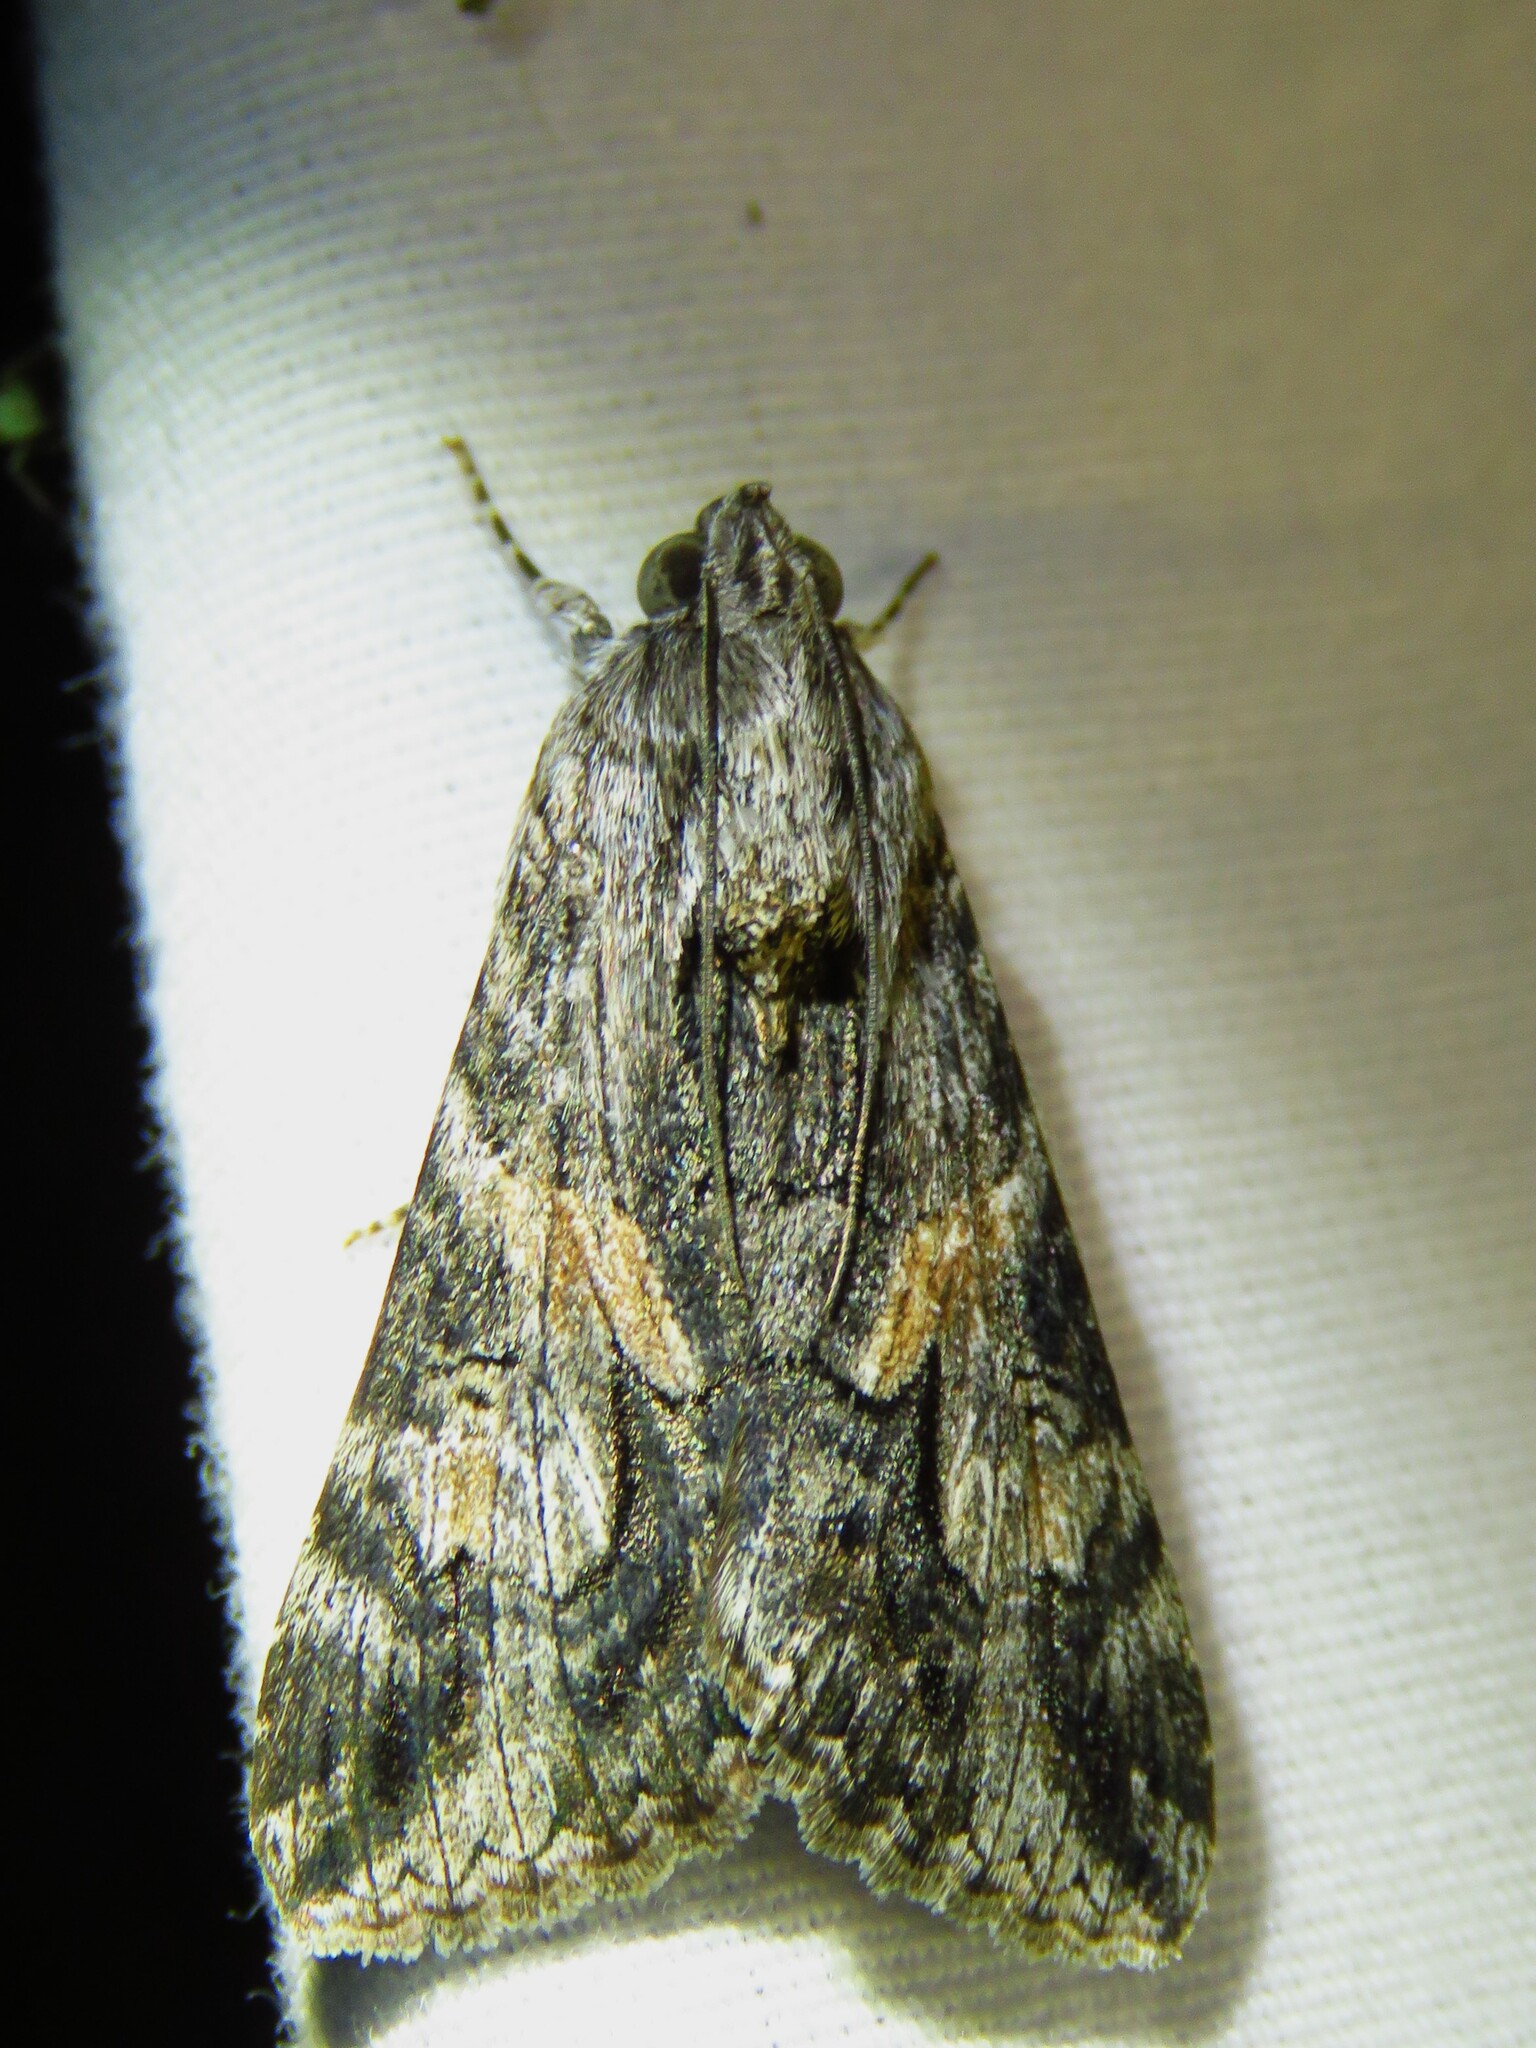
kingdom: Animalia
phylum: Arthropoda
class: Insecta
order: Lepidoptera
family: Erebidae
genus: Melipotis
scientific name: Melipotis jucunda
